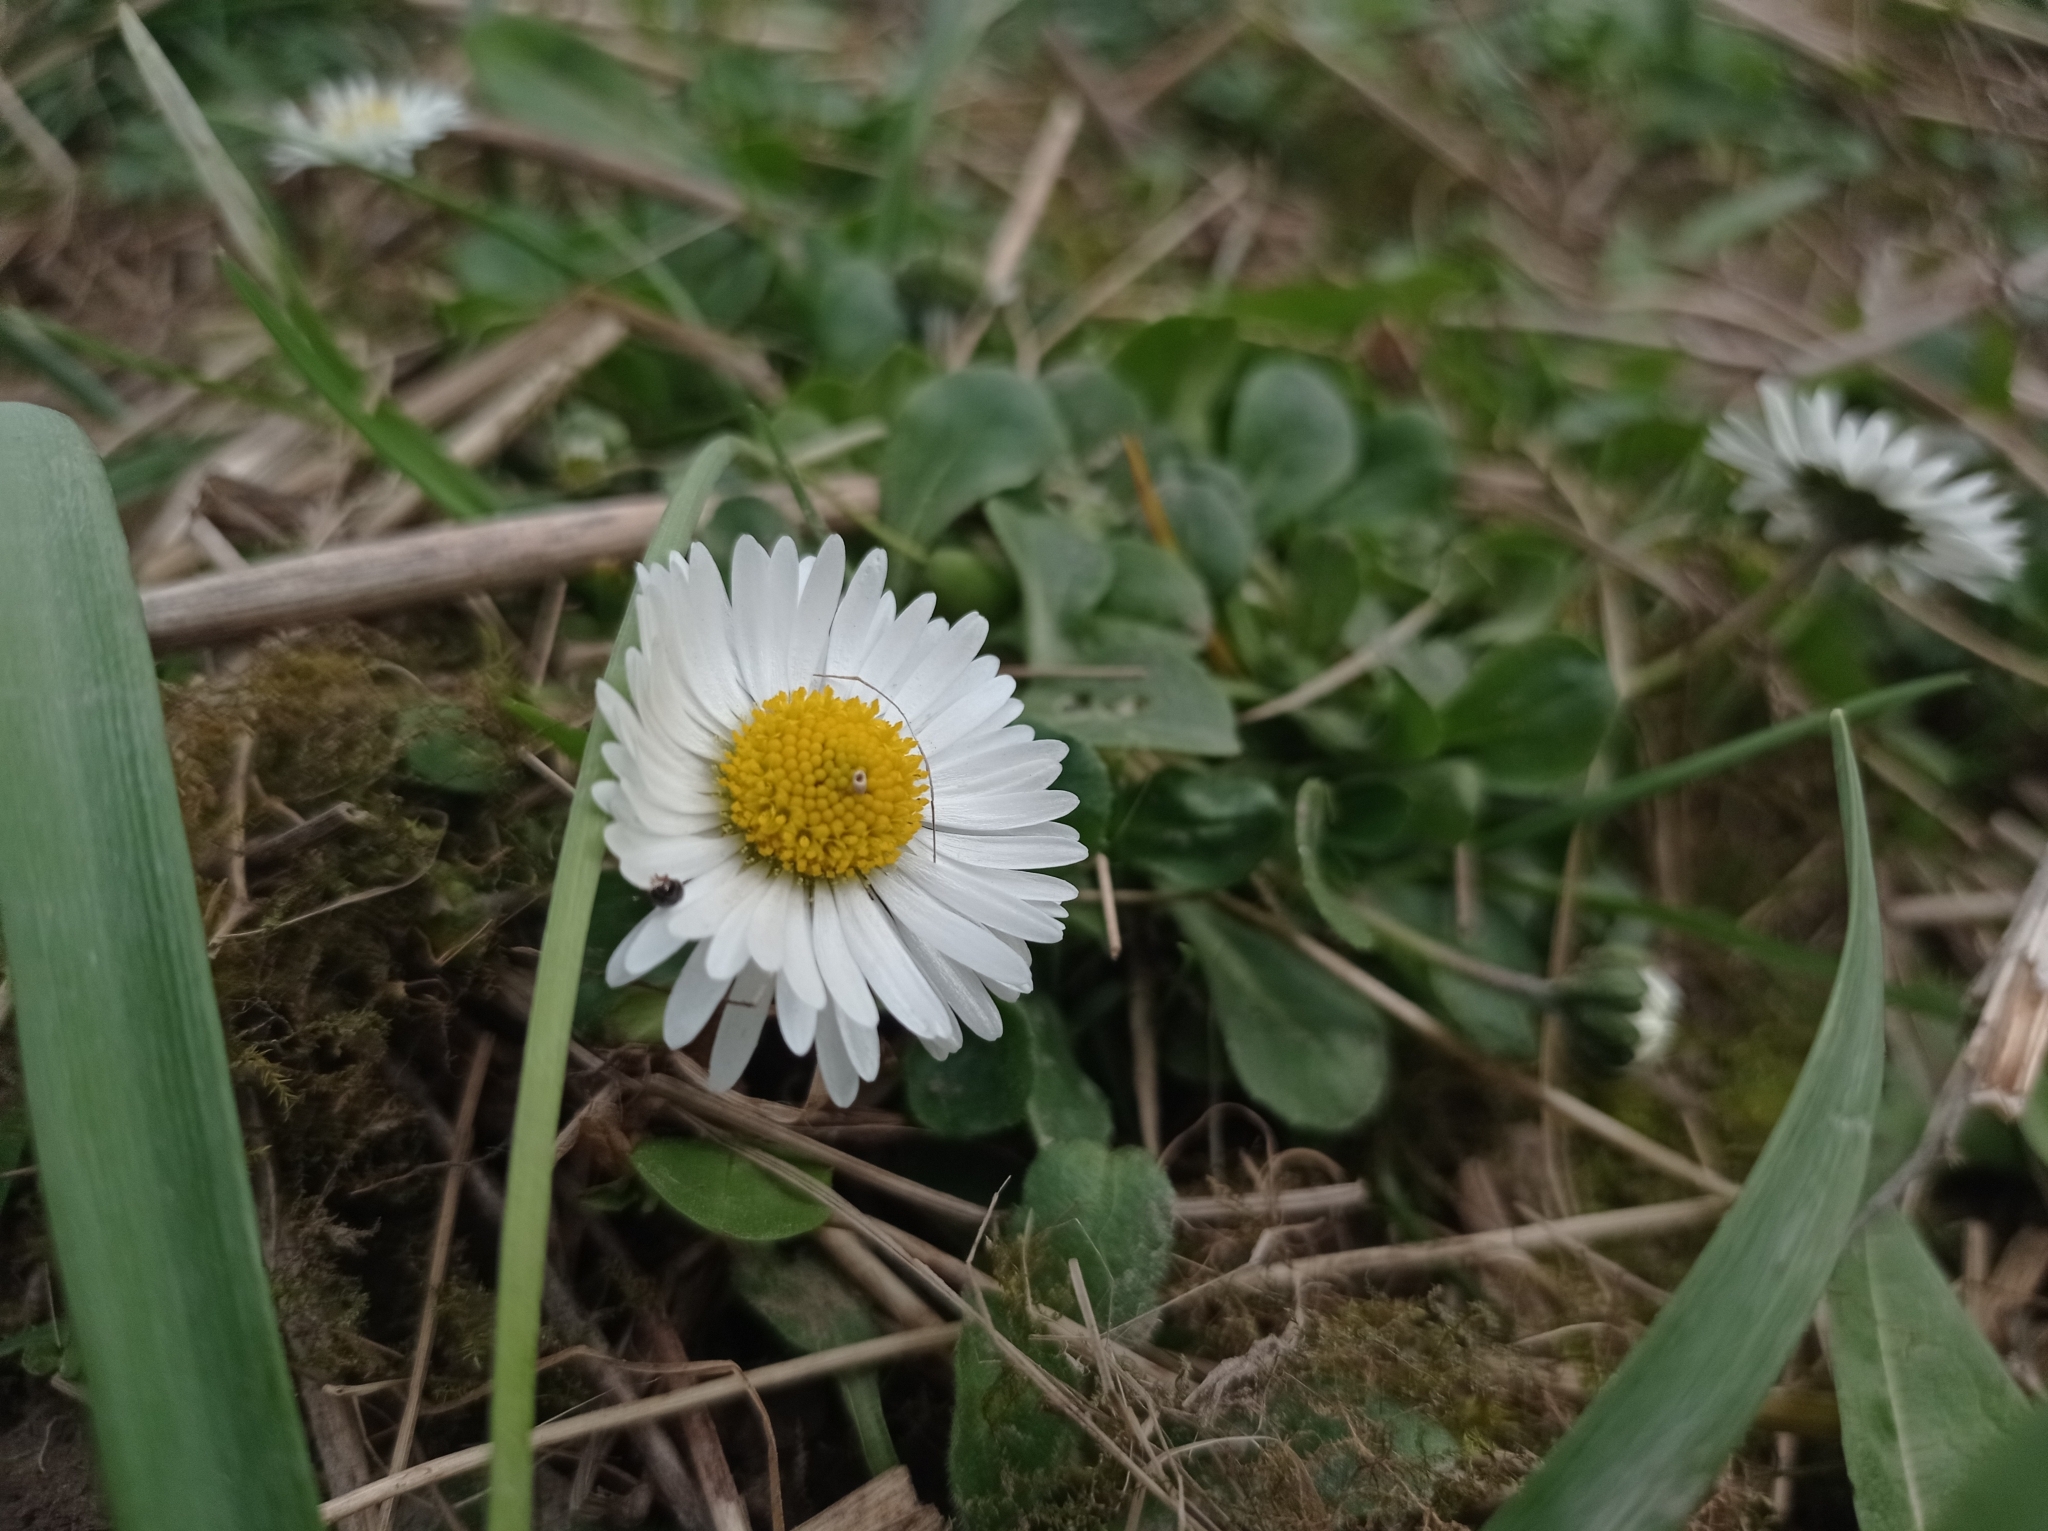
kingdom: Plantae
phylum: Tracheophyta
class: Magnoliopsida
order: Asterales
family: Asteraceae
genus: Bellis
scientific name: Bellis perennis
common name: Lawndaisy
